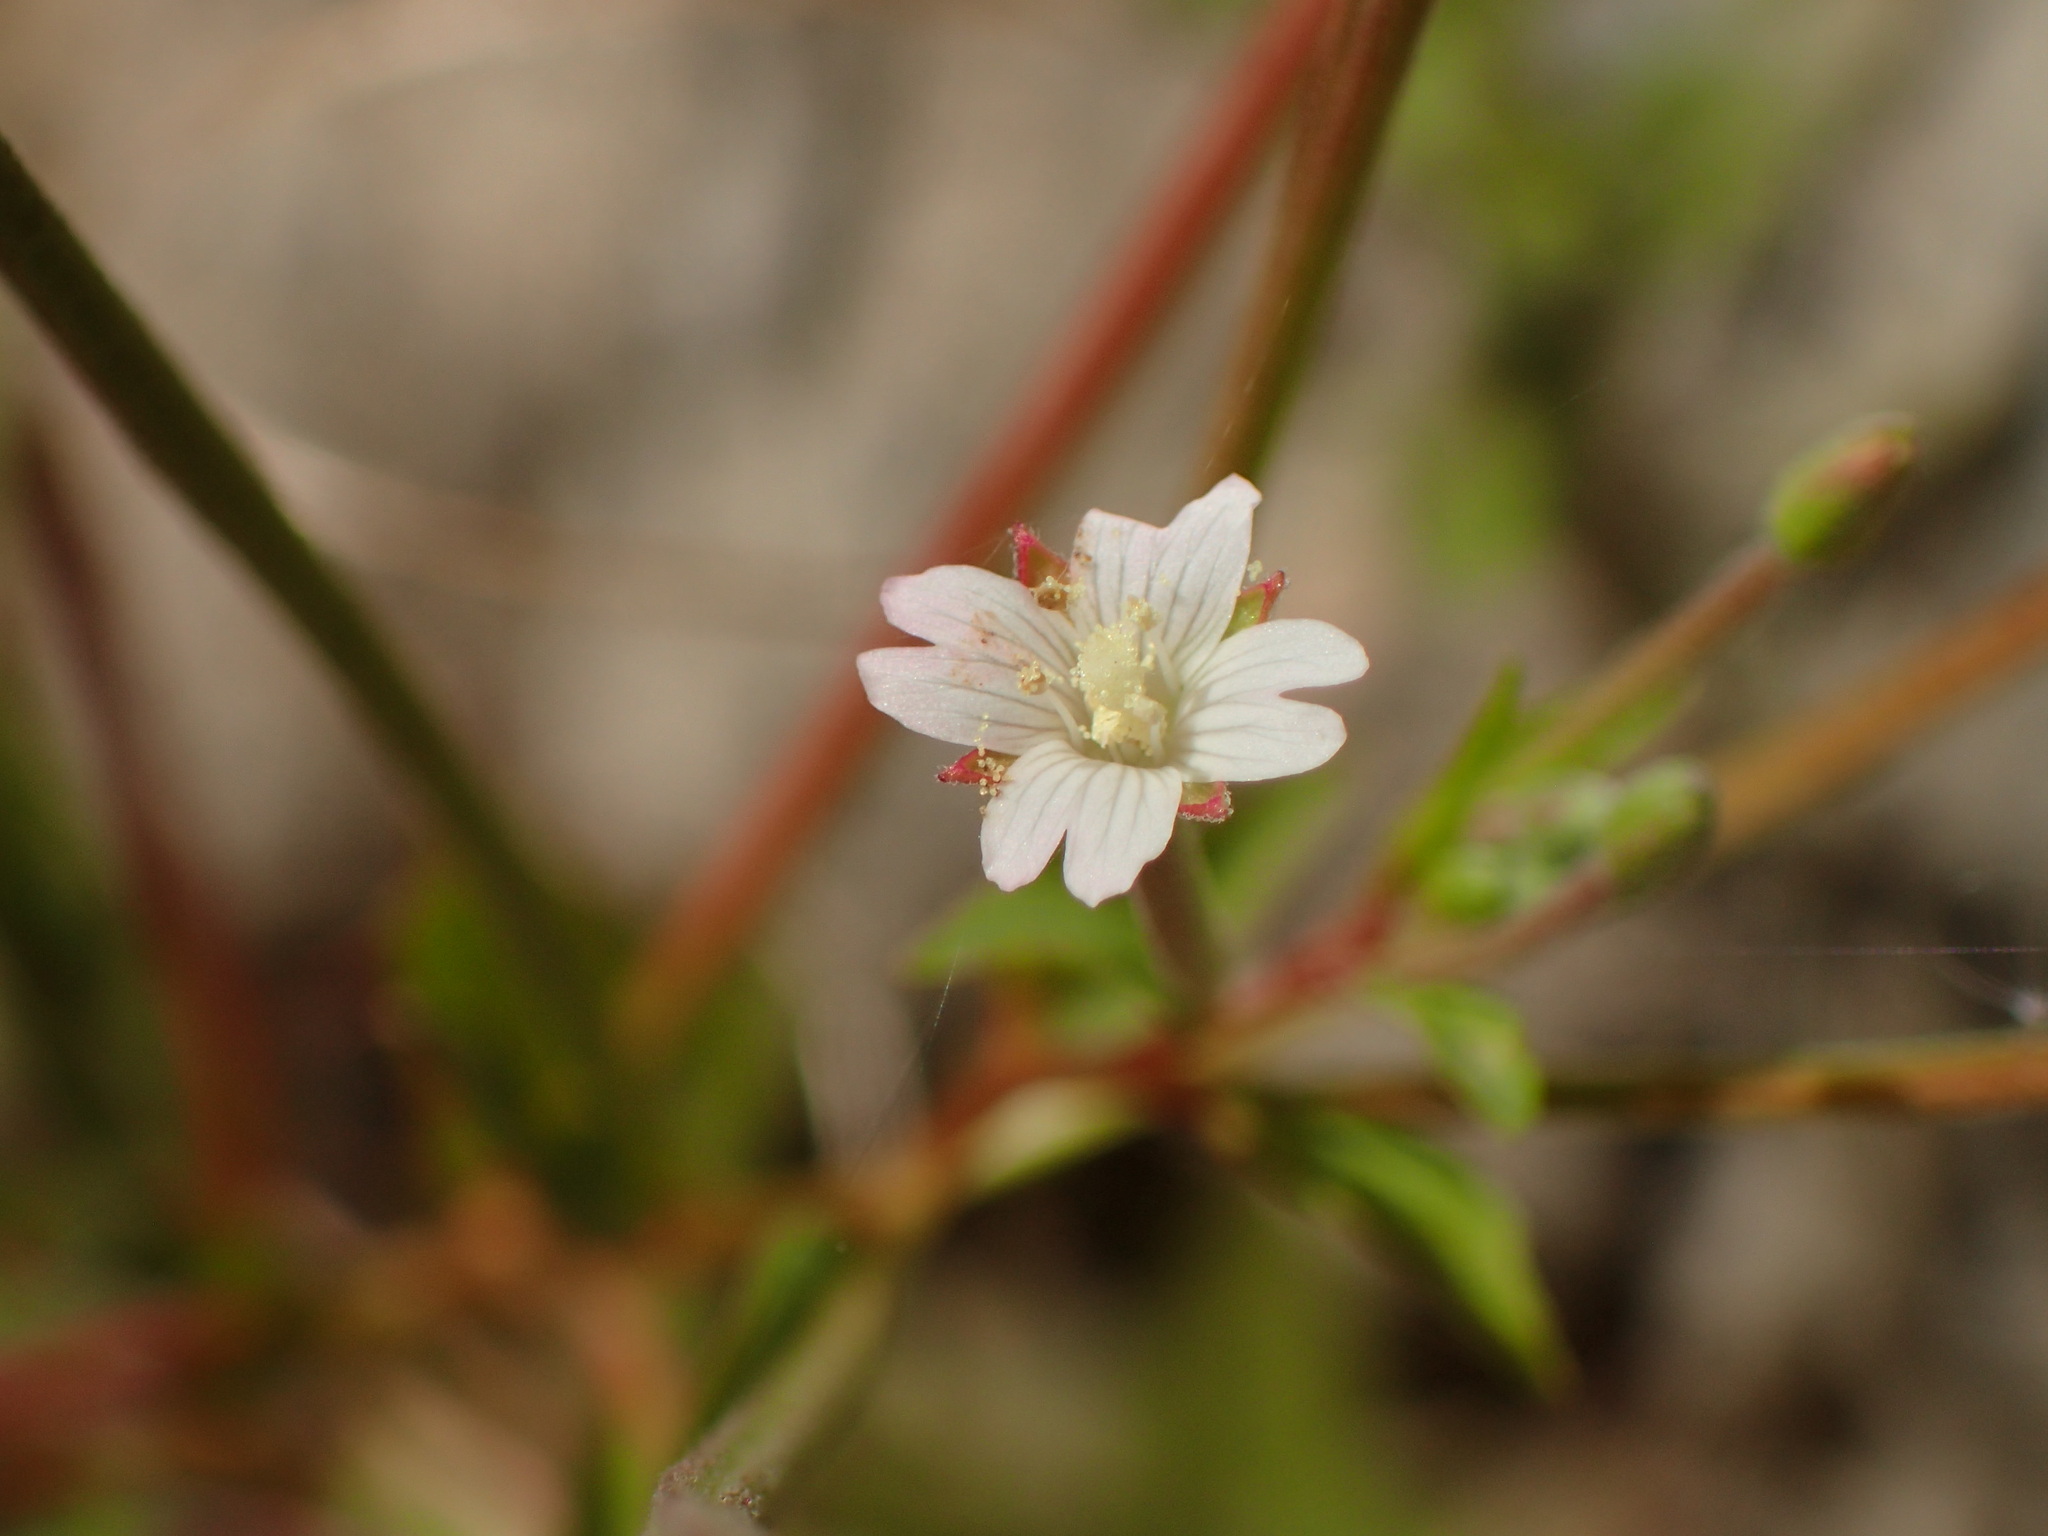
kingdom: Plantae
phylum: Tracheophyta
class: Magnoliopsida
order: Myrtales
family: Onagraceae
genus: Epilobium
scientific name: Epilobium ciliatum
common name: American willowherb
